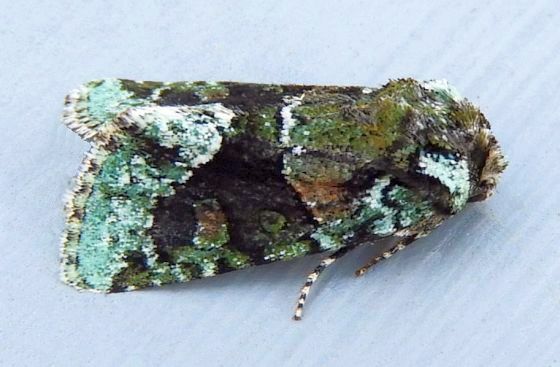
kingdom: Animalia
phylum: Arthropoda
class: Insecta
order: Lepidoptera
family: Noctuidae
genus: Lacinipolia
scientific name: Lacinipolia explicata
